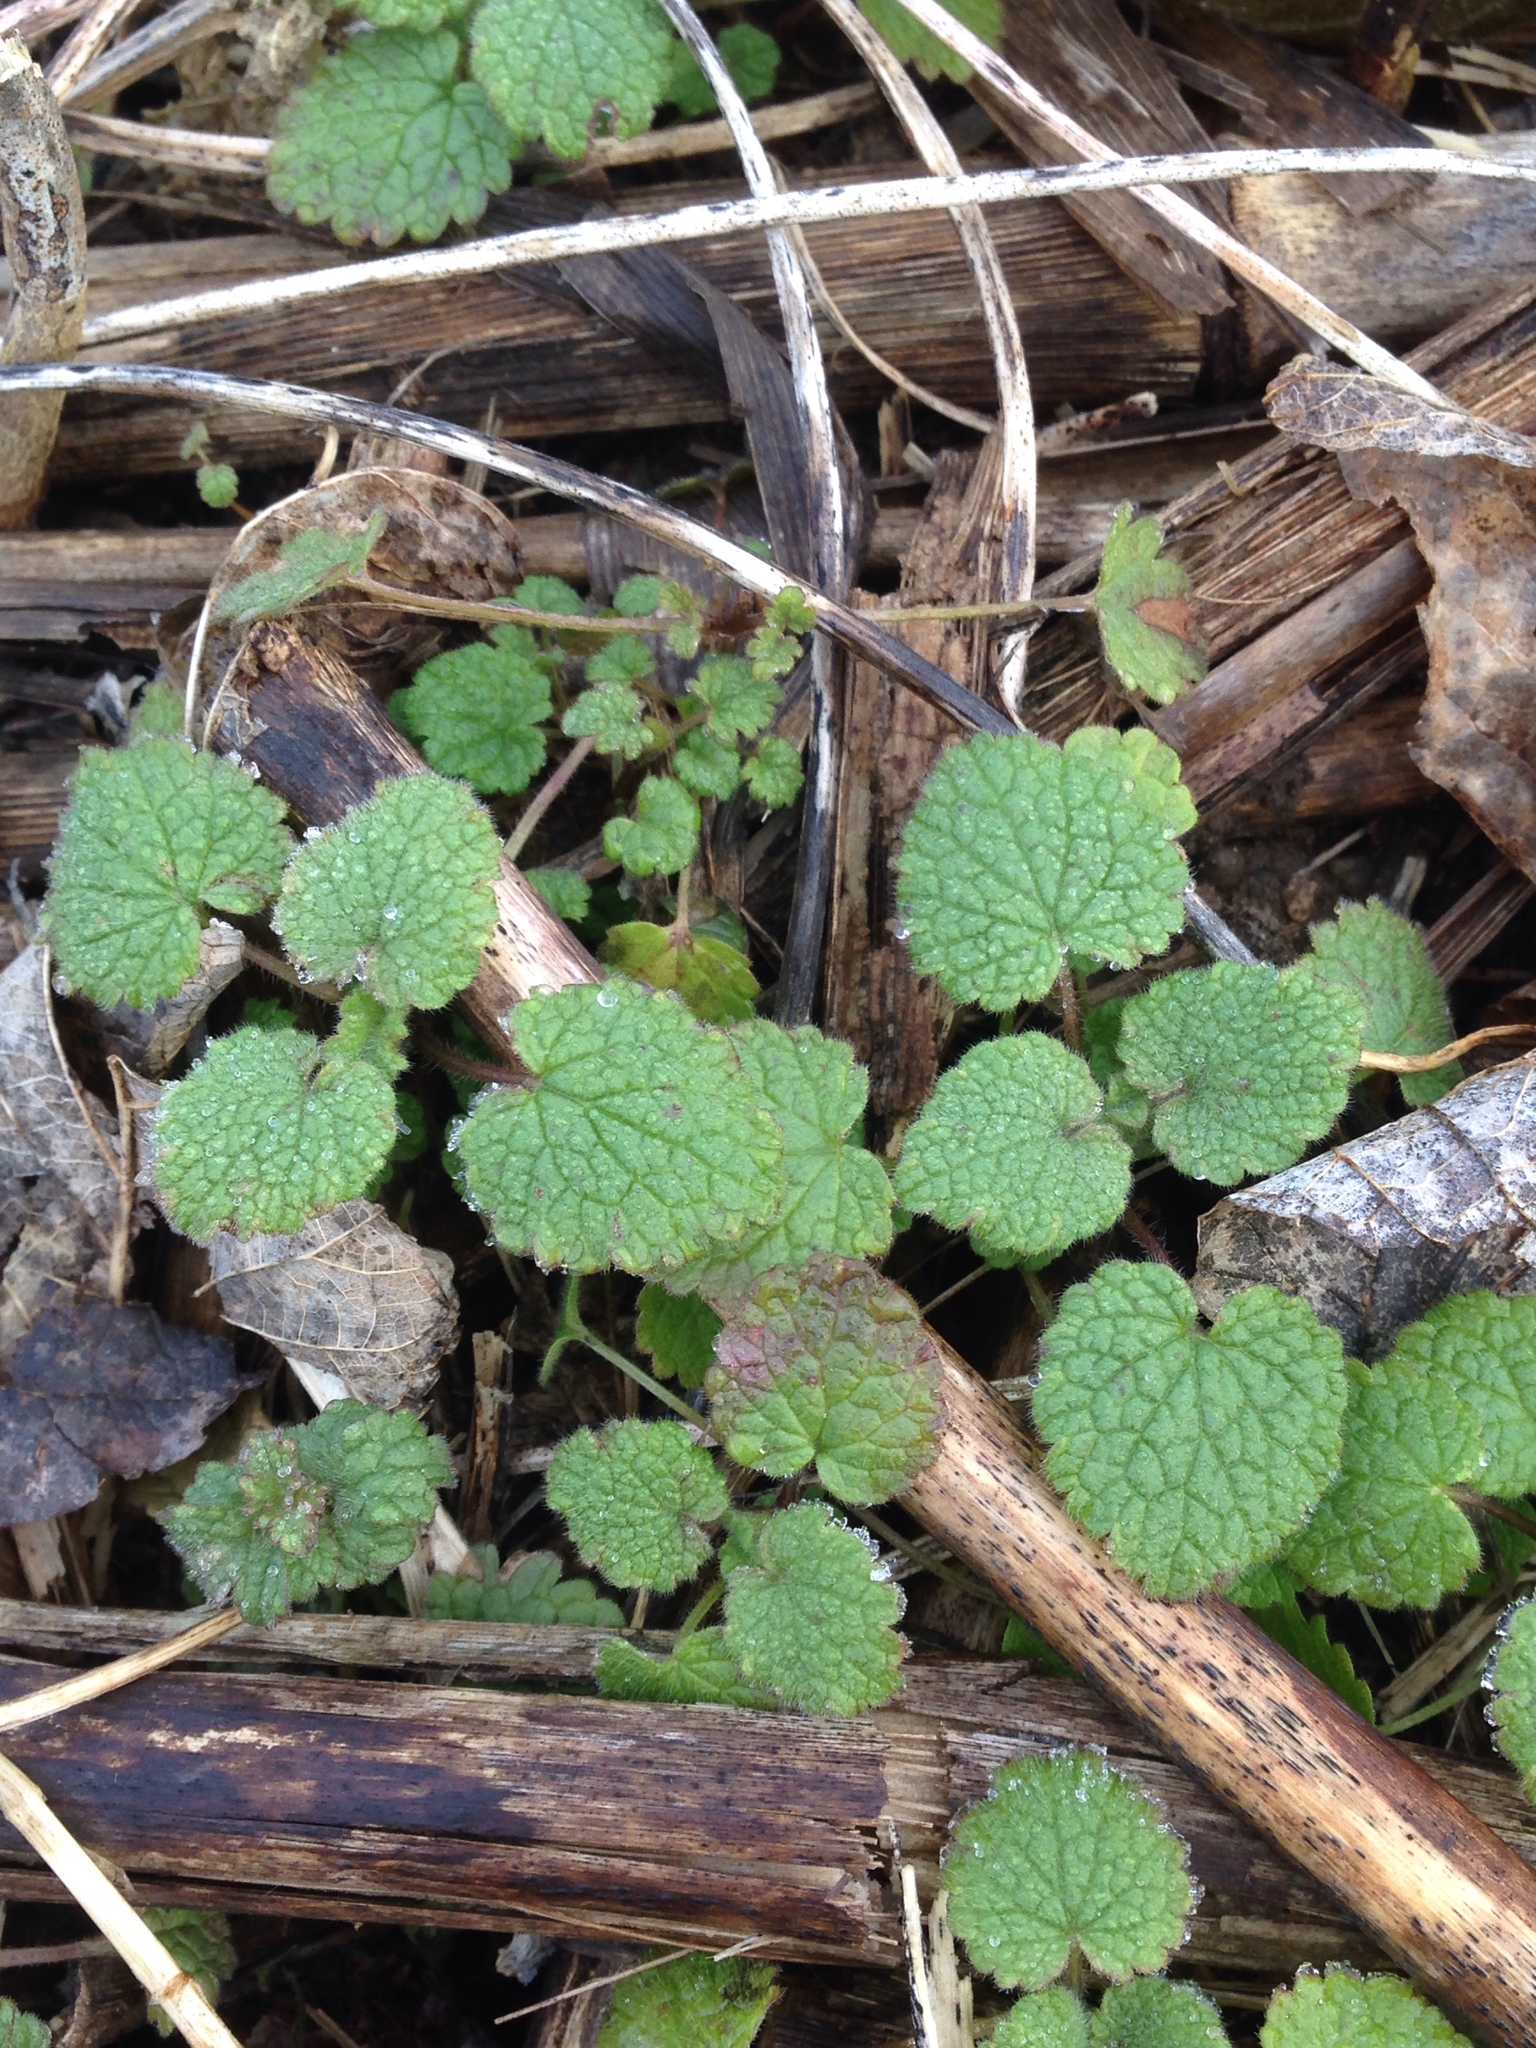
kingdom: Plantae
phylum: Tracheophyta
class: Magnoliopsida
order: Lamiales
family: Lamiaceae
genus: Lamium
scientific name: Lamium purpureum
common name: Red dead-nettle
